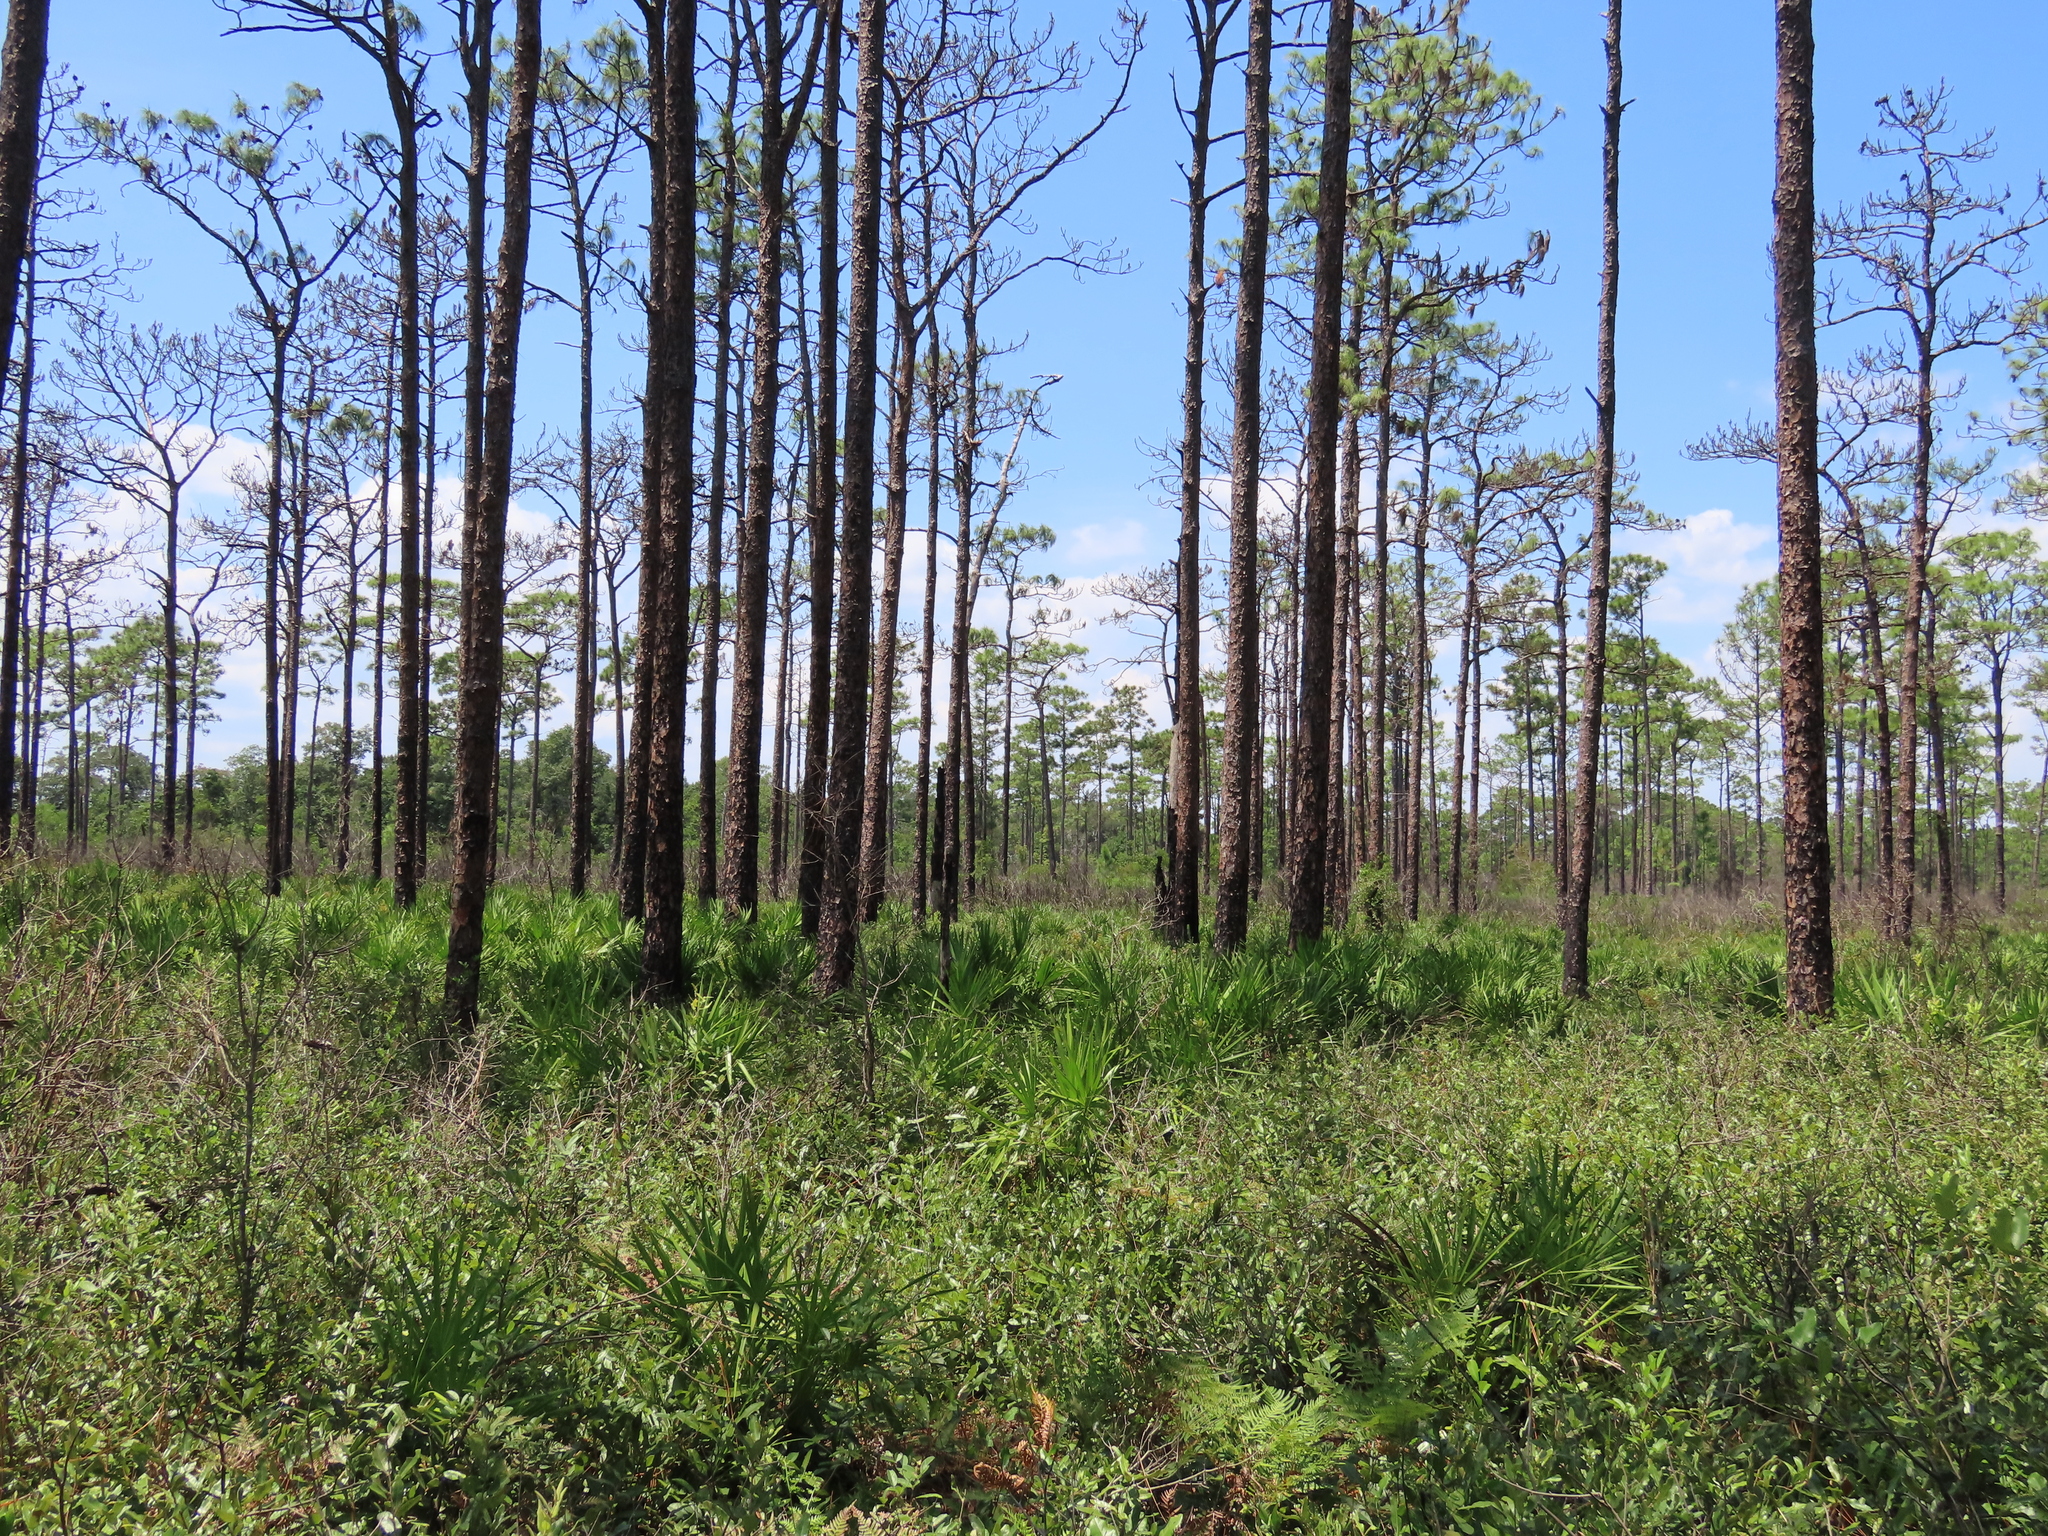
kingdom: Plantae
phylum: Tracheophyta
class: Pinopsida
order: Pinales
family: Pinaceae
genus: Pinus
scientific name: Pinus palustris
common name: Longleaf pine
